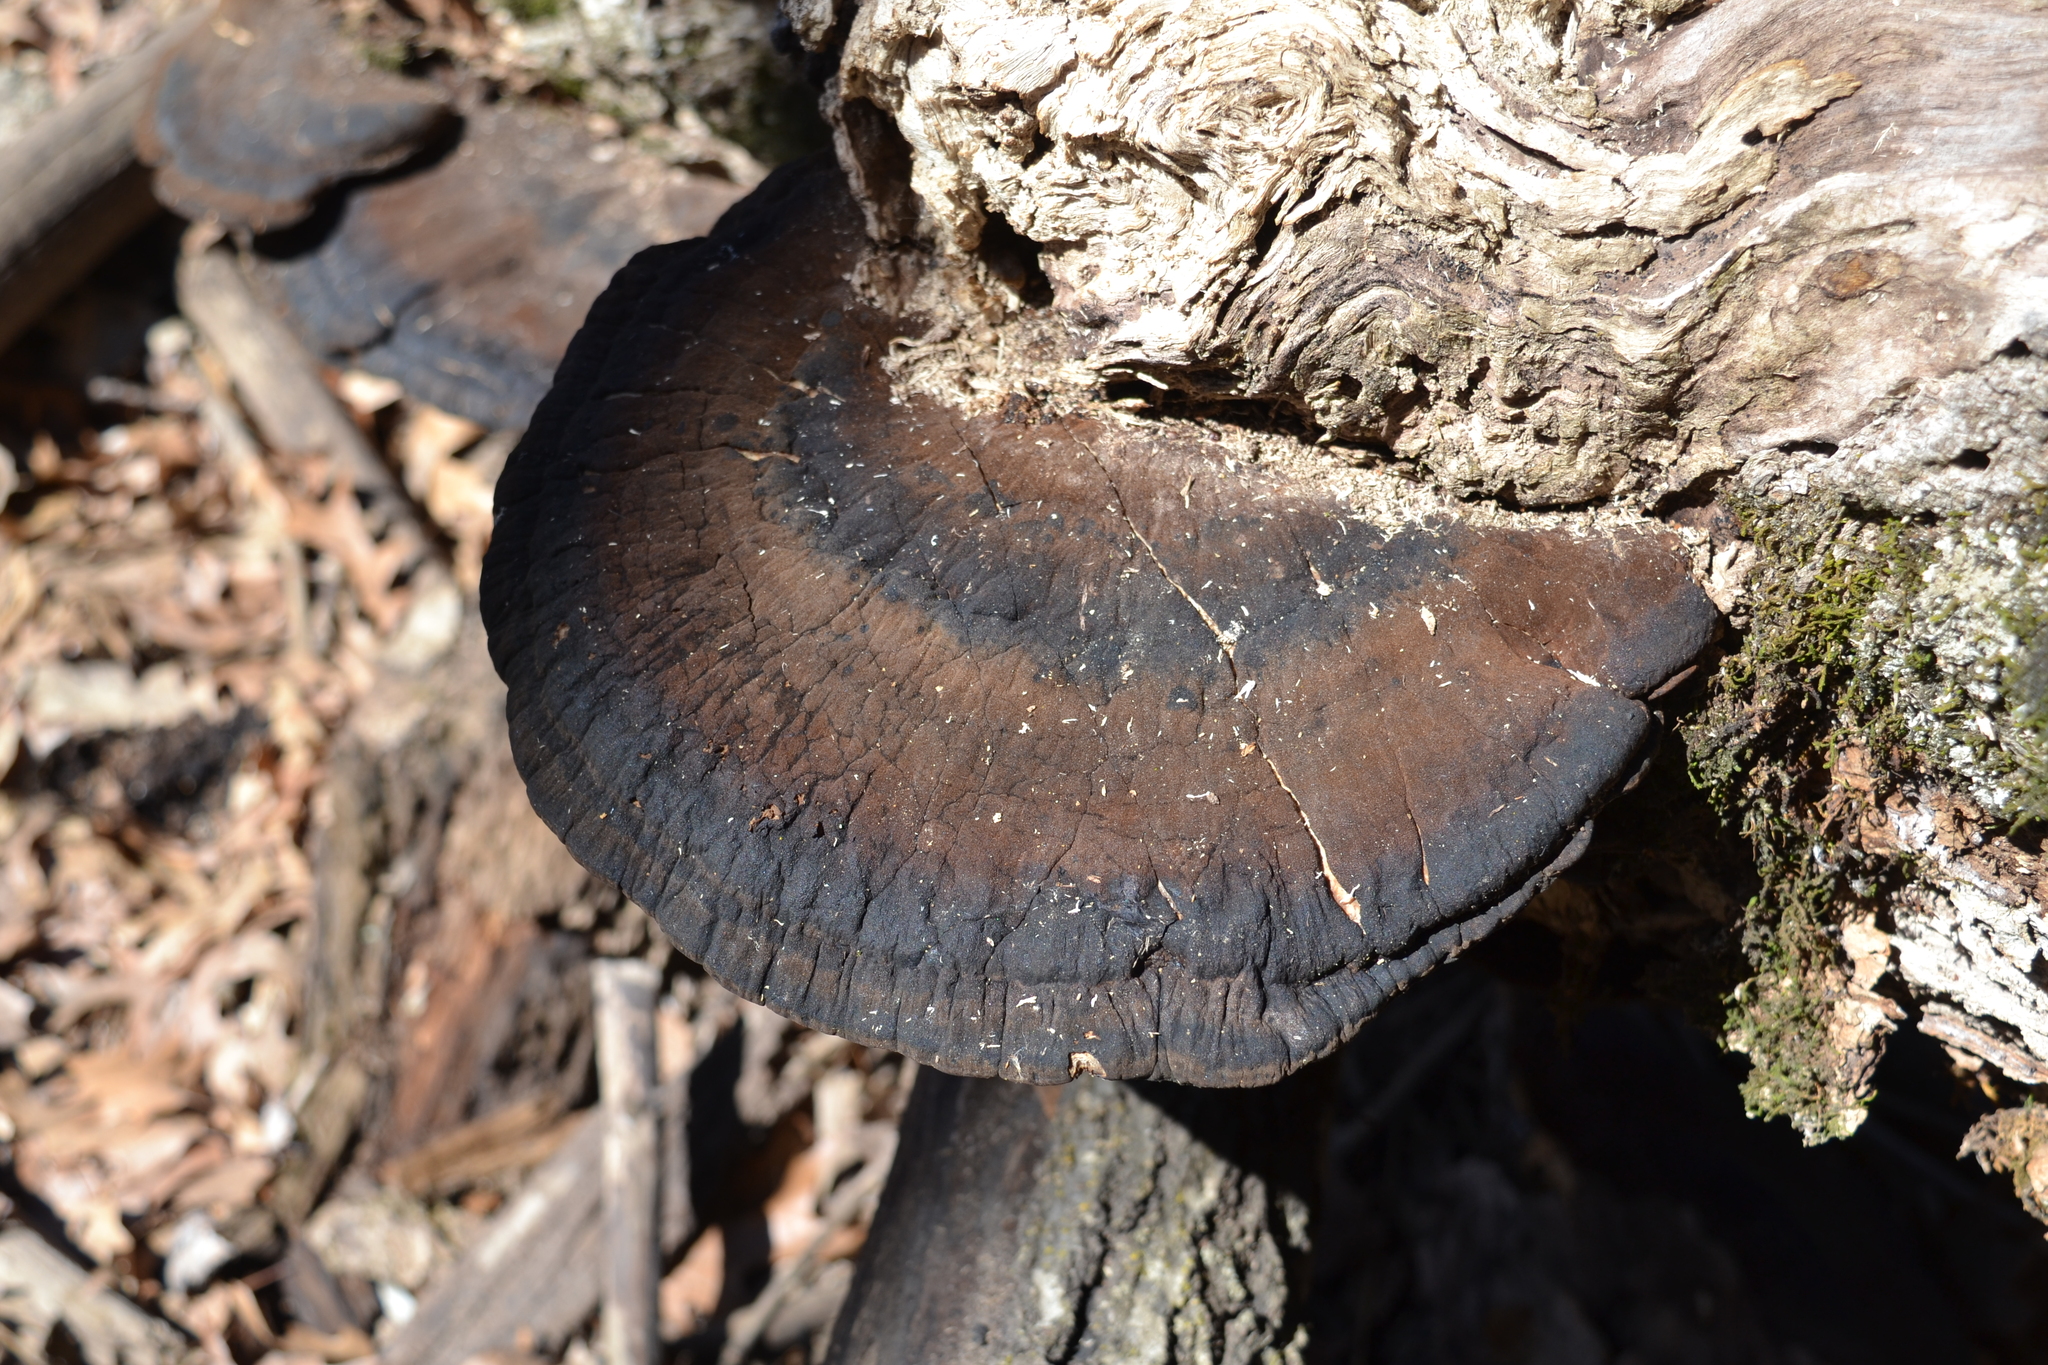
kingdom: Fungi
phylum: Basidiomycota
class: Agaricomycetes
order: Polyporales
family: Ischnodermataceae
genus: Ischnoderma
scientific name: Ischnoderma resinosum
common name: Resinous polypore
